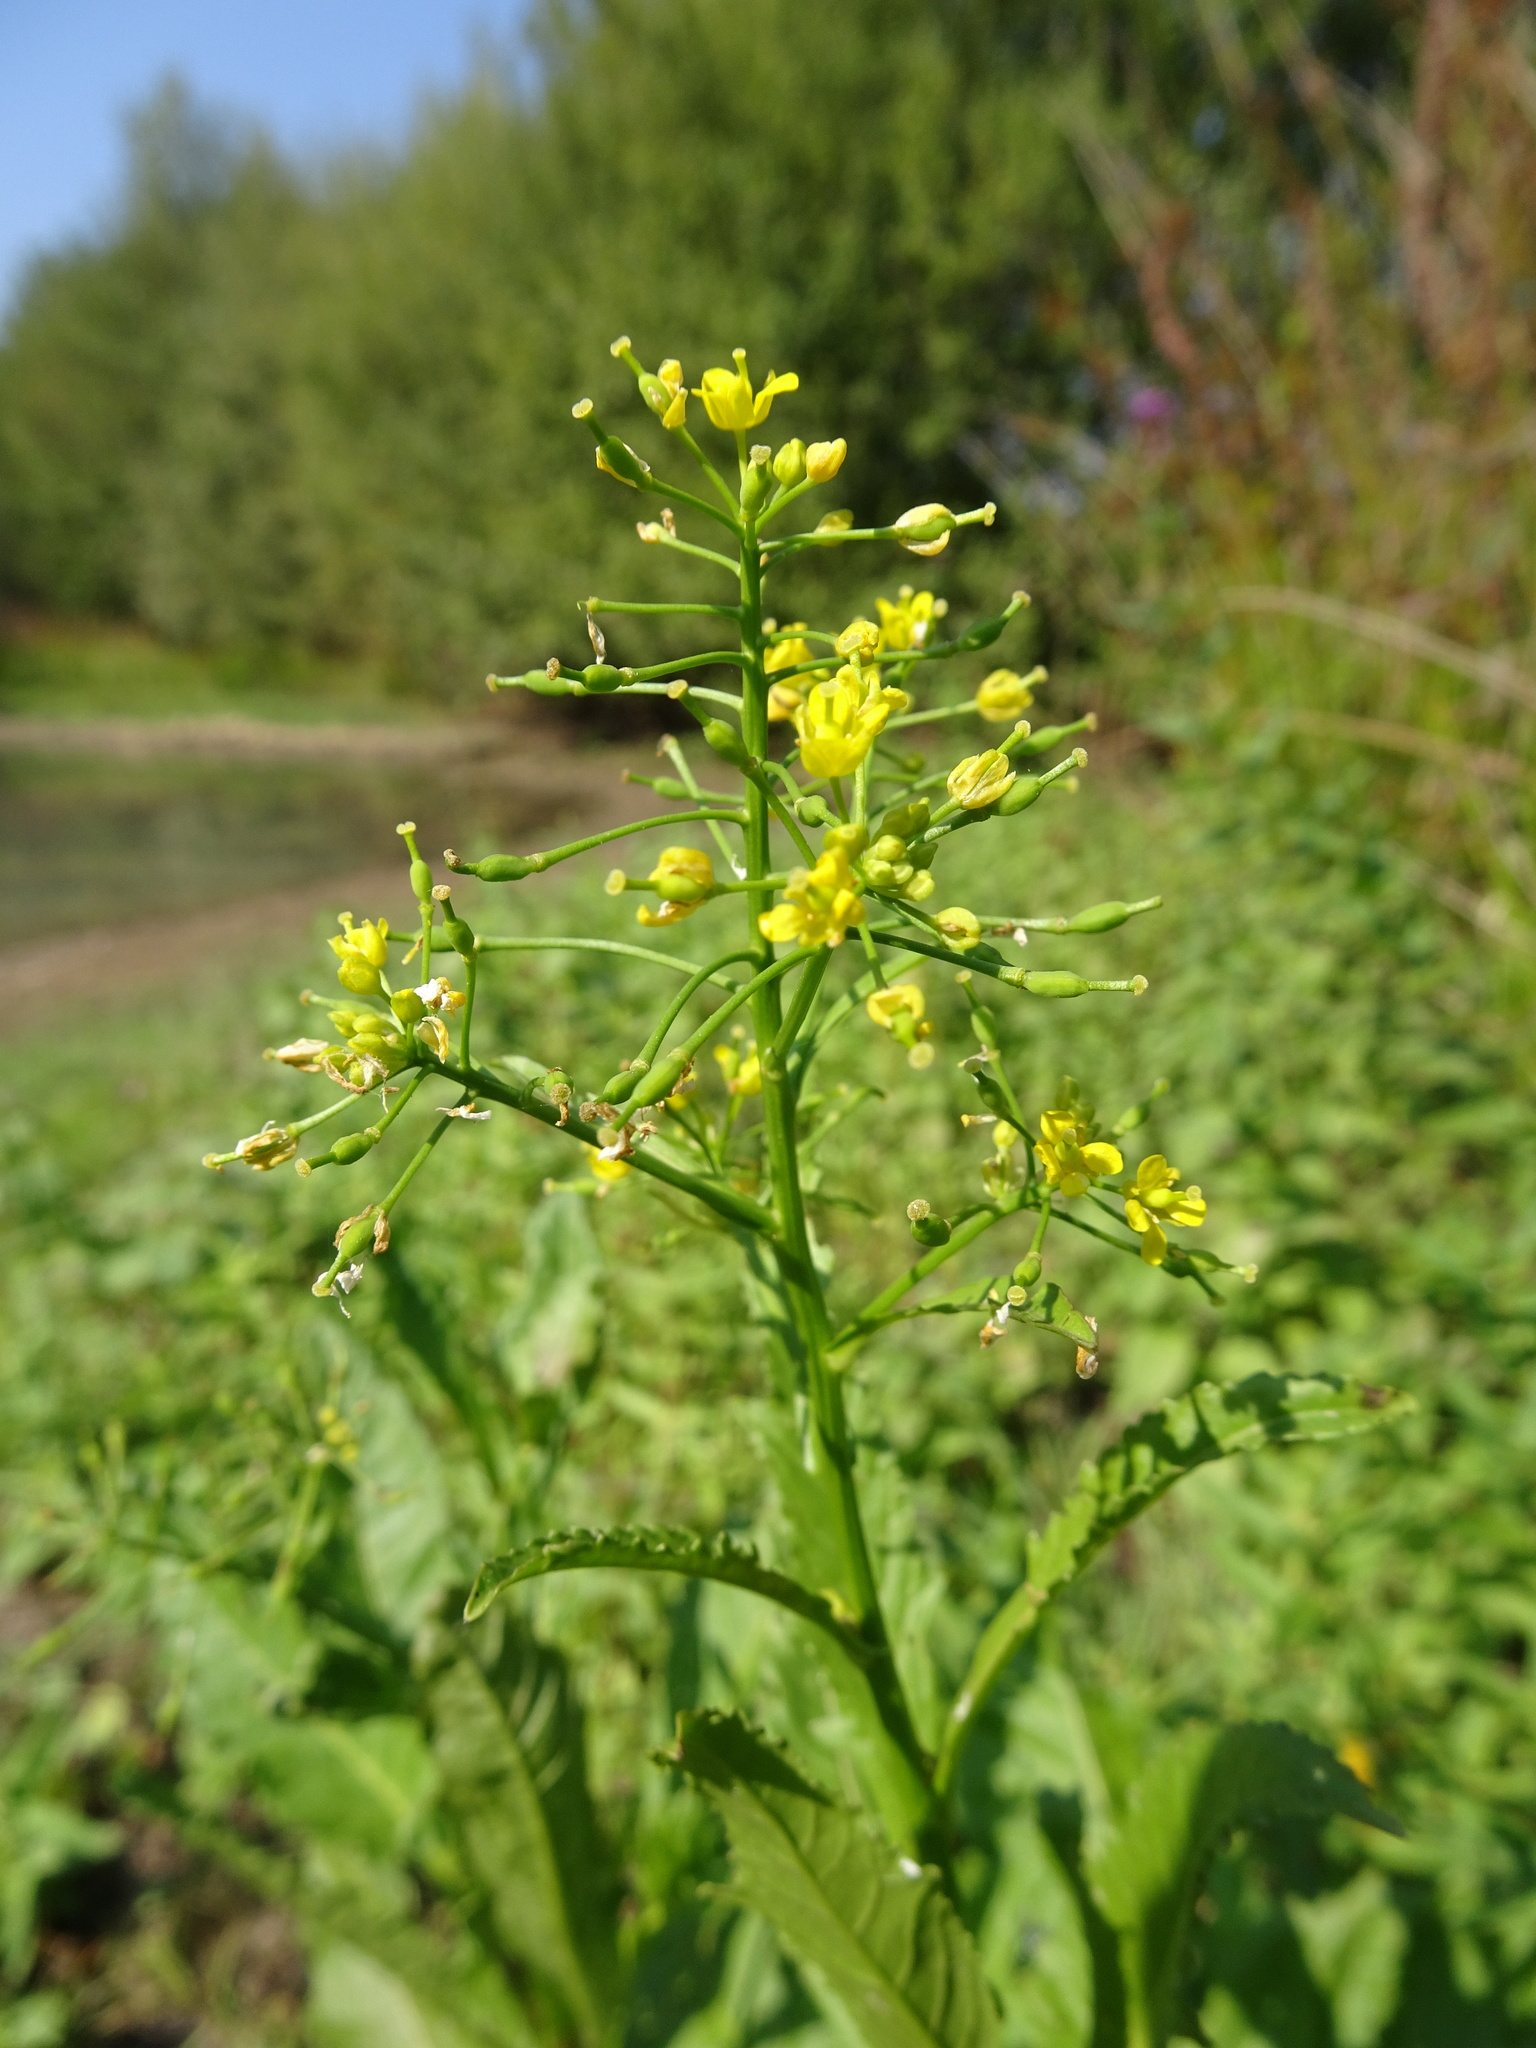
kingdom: Plantae
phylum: Tracheophyta
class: Magnoliopsida
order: Brassicales
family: Brassicaceae
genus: Rorippa
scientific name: Rorippa amphibia
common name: Great yellow-cress
